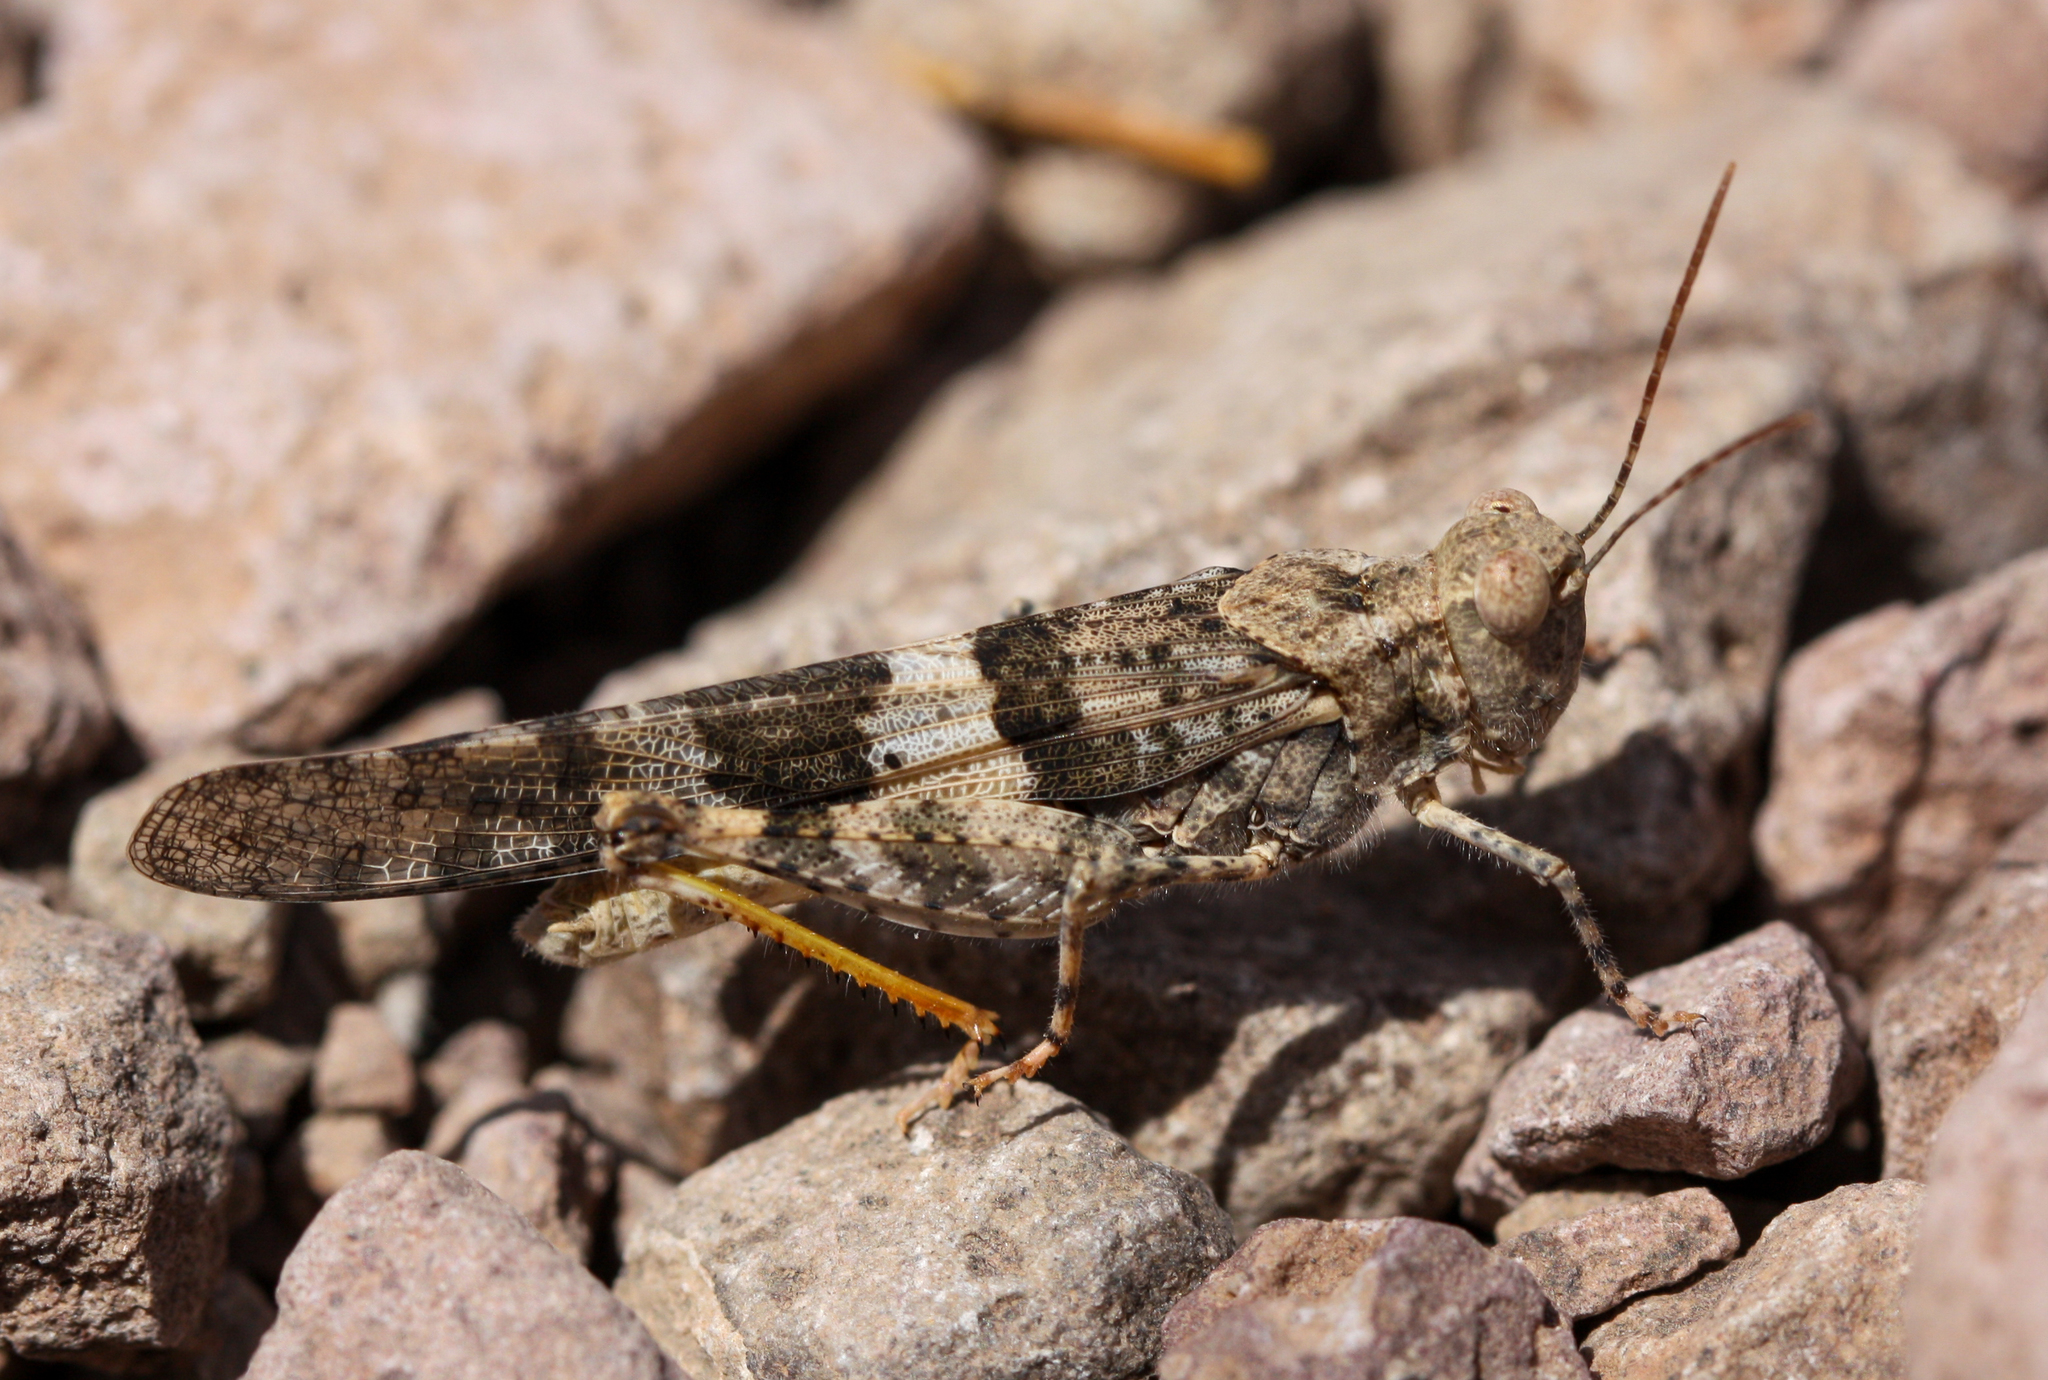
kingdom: Animalia
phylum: Arthropoda
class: Insecta
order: Orthoptera
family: Acrididae
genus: Trimerotropis
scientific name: Trimerotropis pallidipennis
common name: Pallid-winged grasshopper
